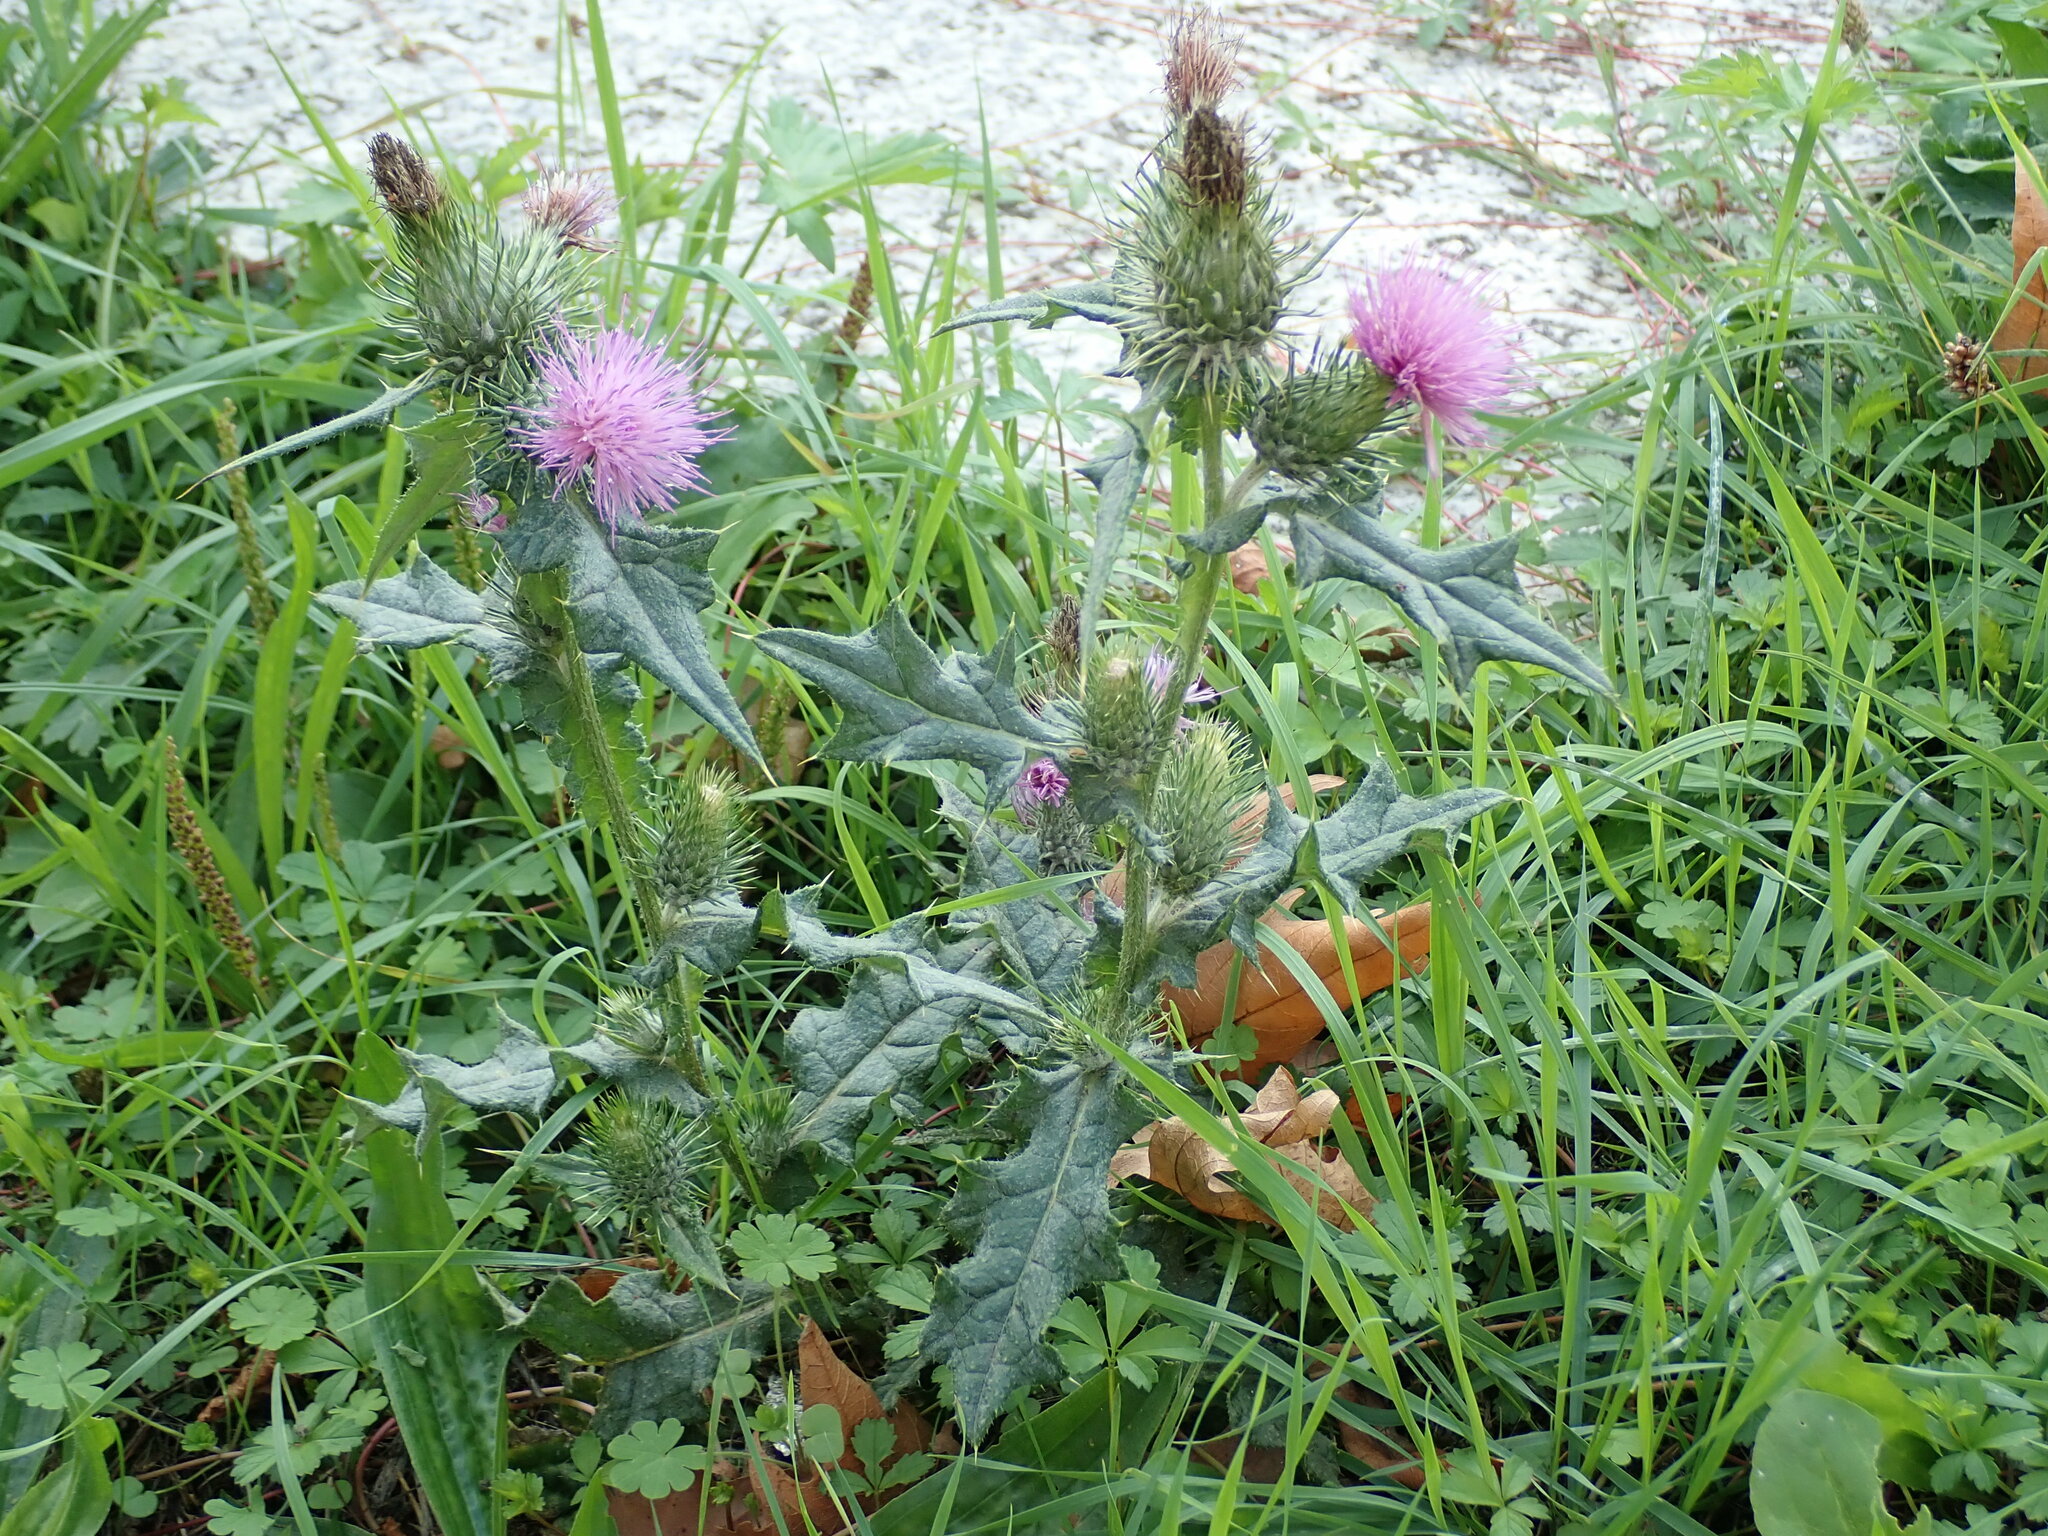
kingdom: Plantae
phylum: Tracheophyta
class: Magnoliopsida
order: Asterales
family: Asteraceae
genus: Cirsium
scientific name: Cirsium vulgare
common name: Bull thistle
